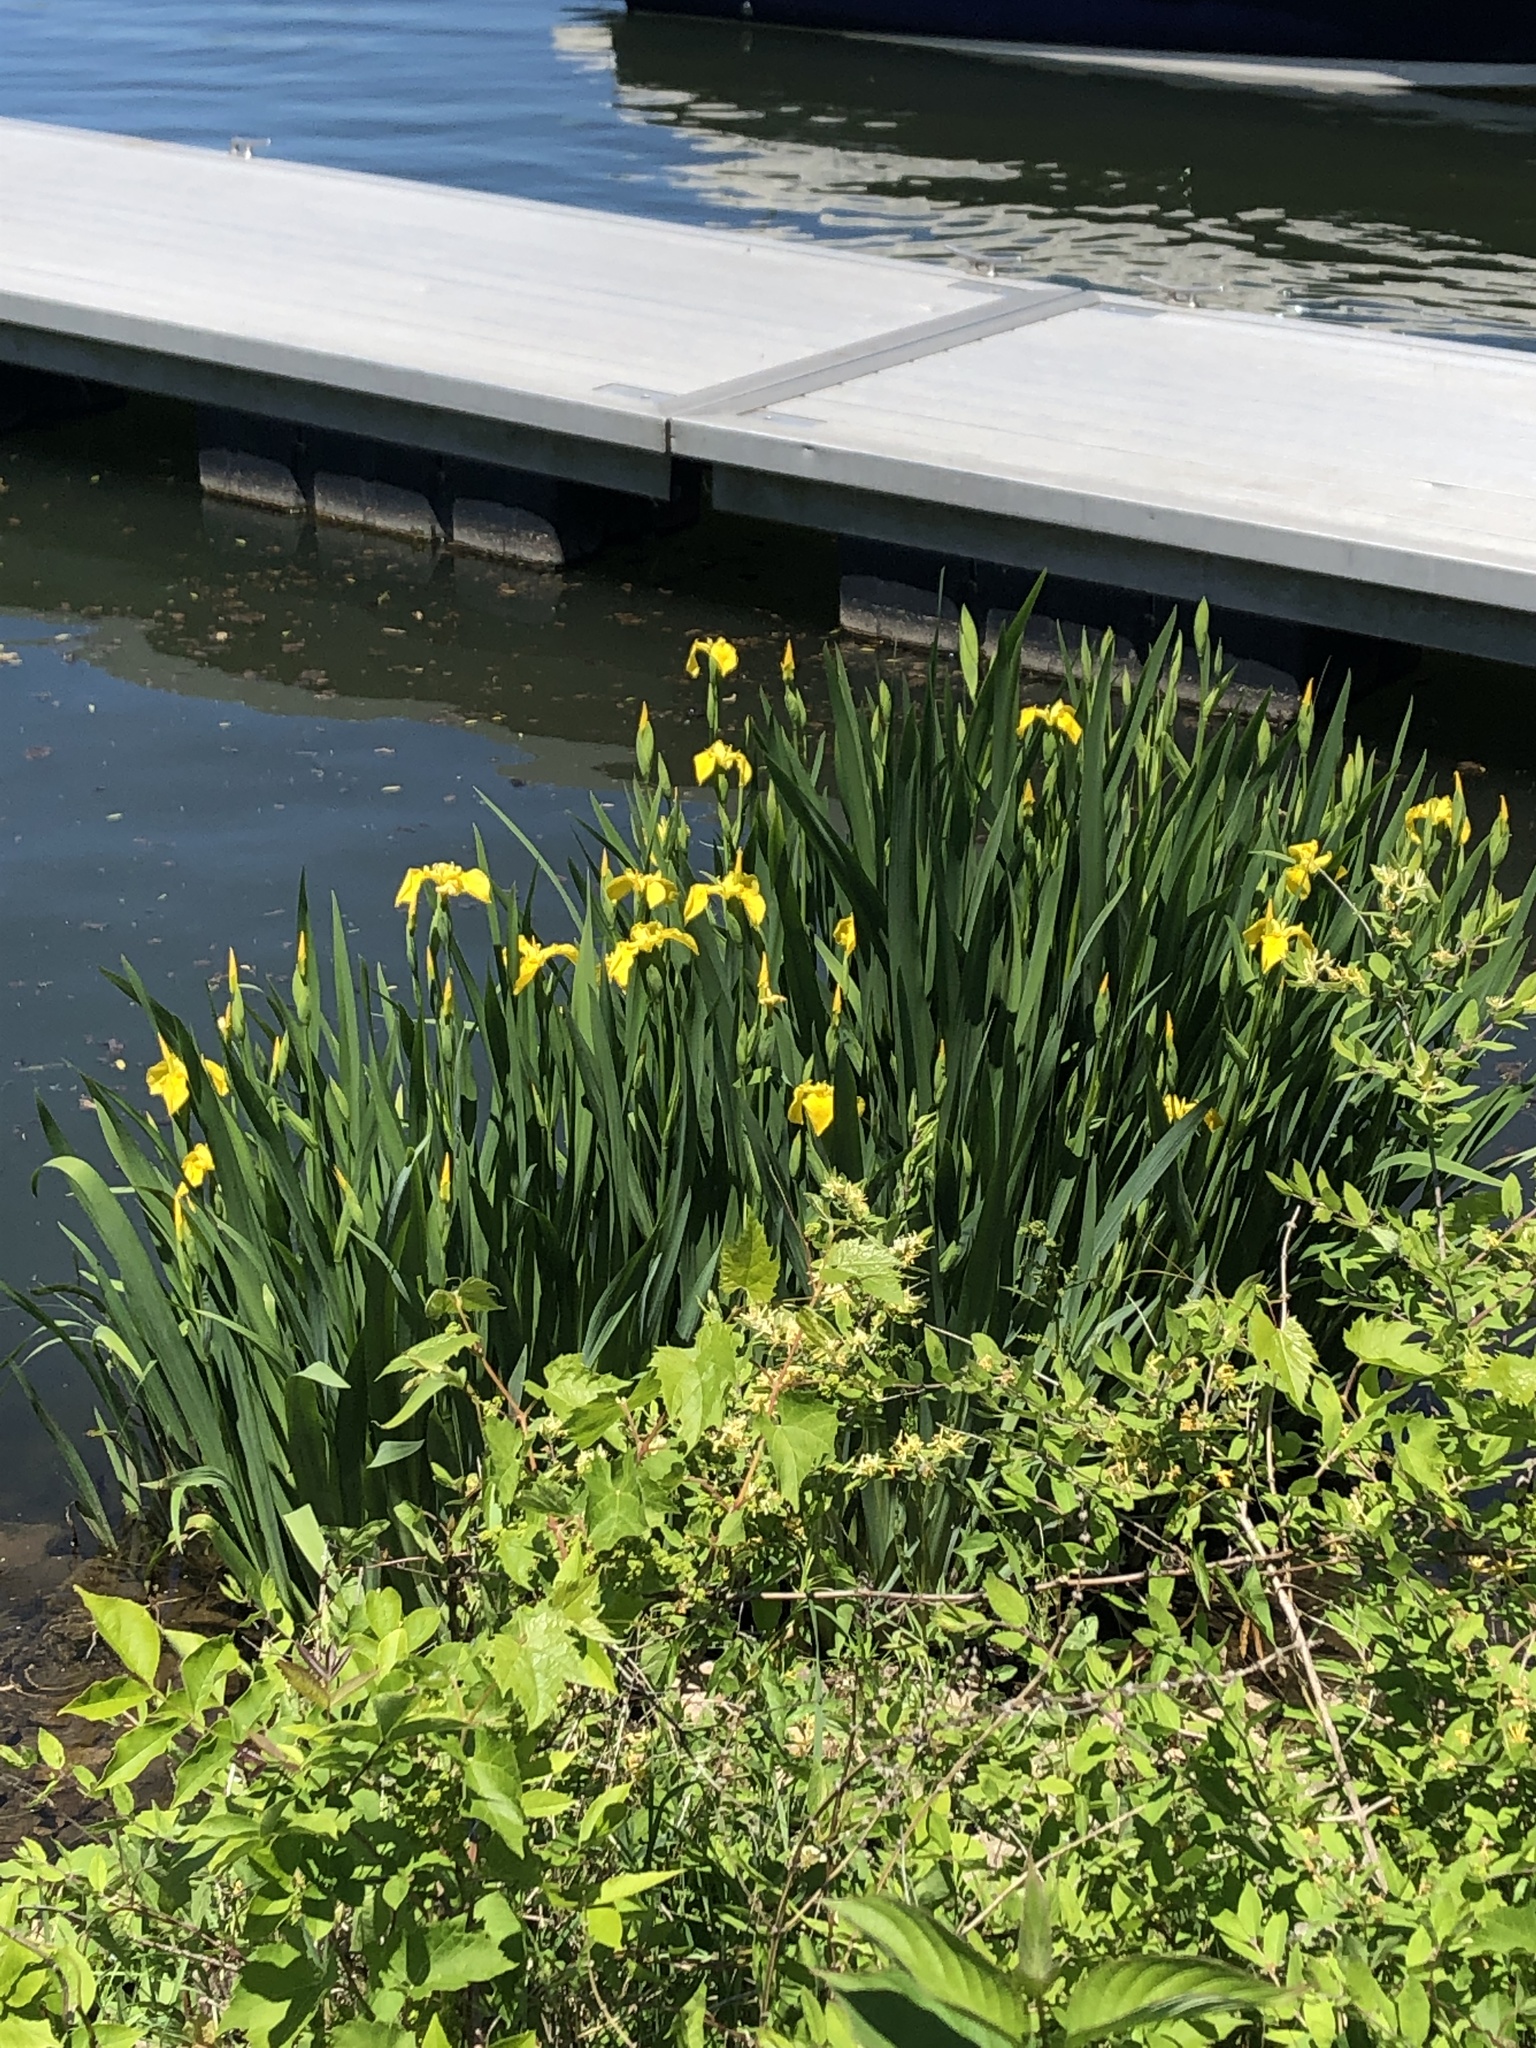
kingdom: Plantae
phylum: Tracheophyta
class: Liliopsida
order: Asparagales
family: Iridaceae
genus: Iris
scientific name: Iris pseudacorus
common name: Yellow flag
